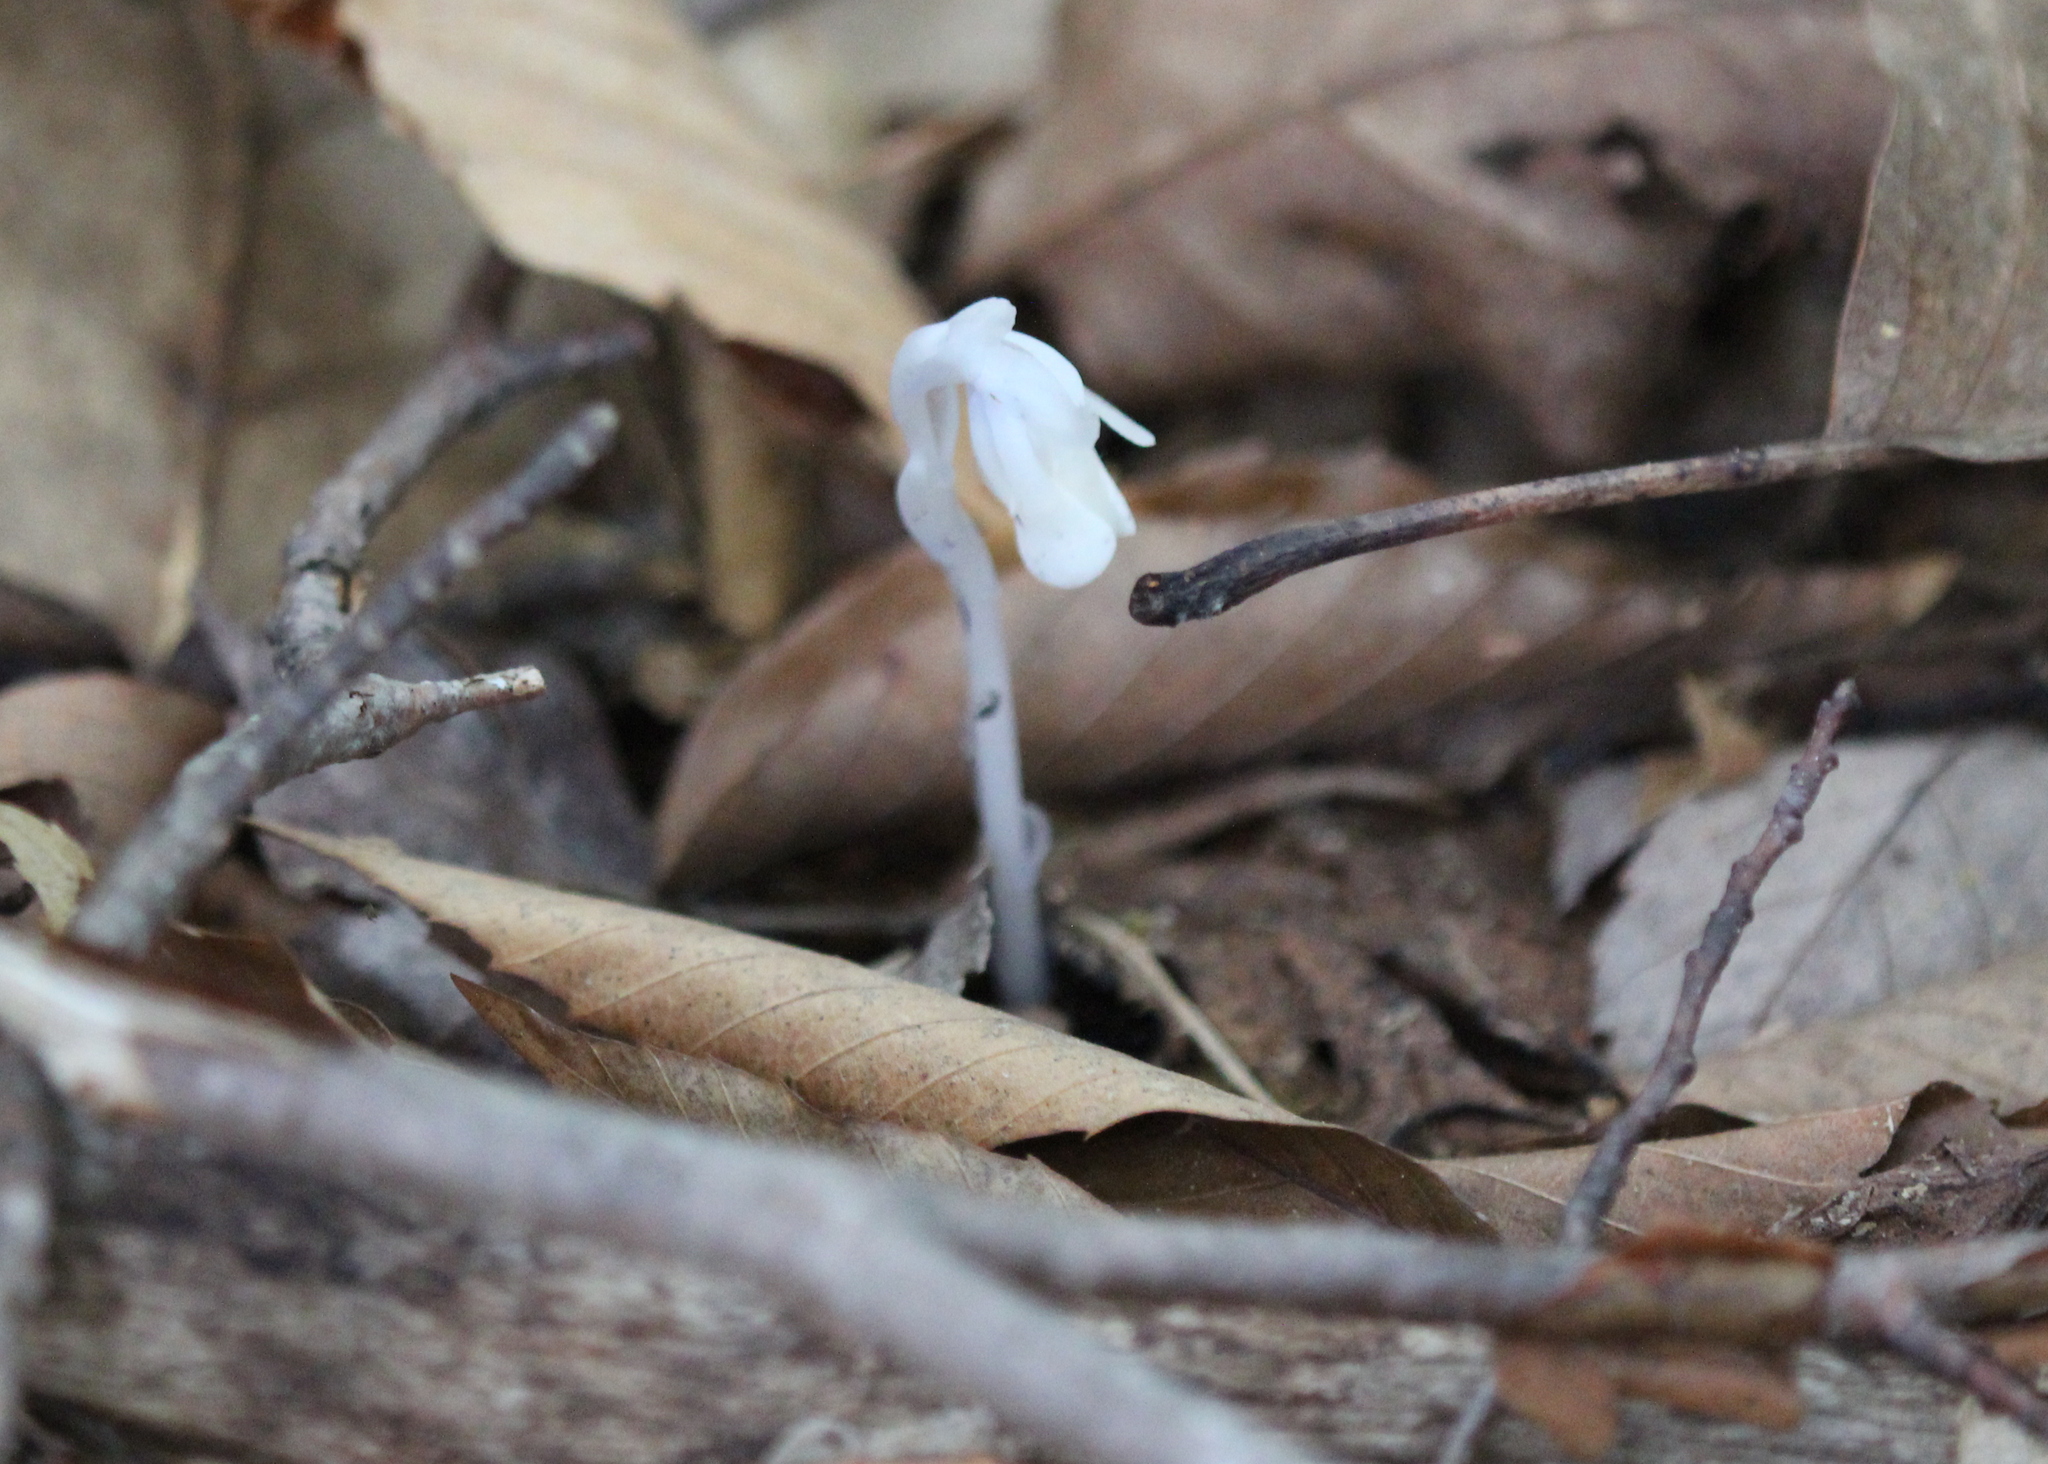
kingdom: Plantae
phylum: Tracheophyta
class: Magnoliopsida
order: Ericales
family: Ericaceae
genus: Monotropa
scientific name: Monotropa uniflora
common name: Convulsion root
